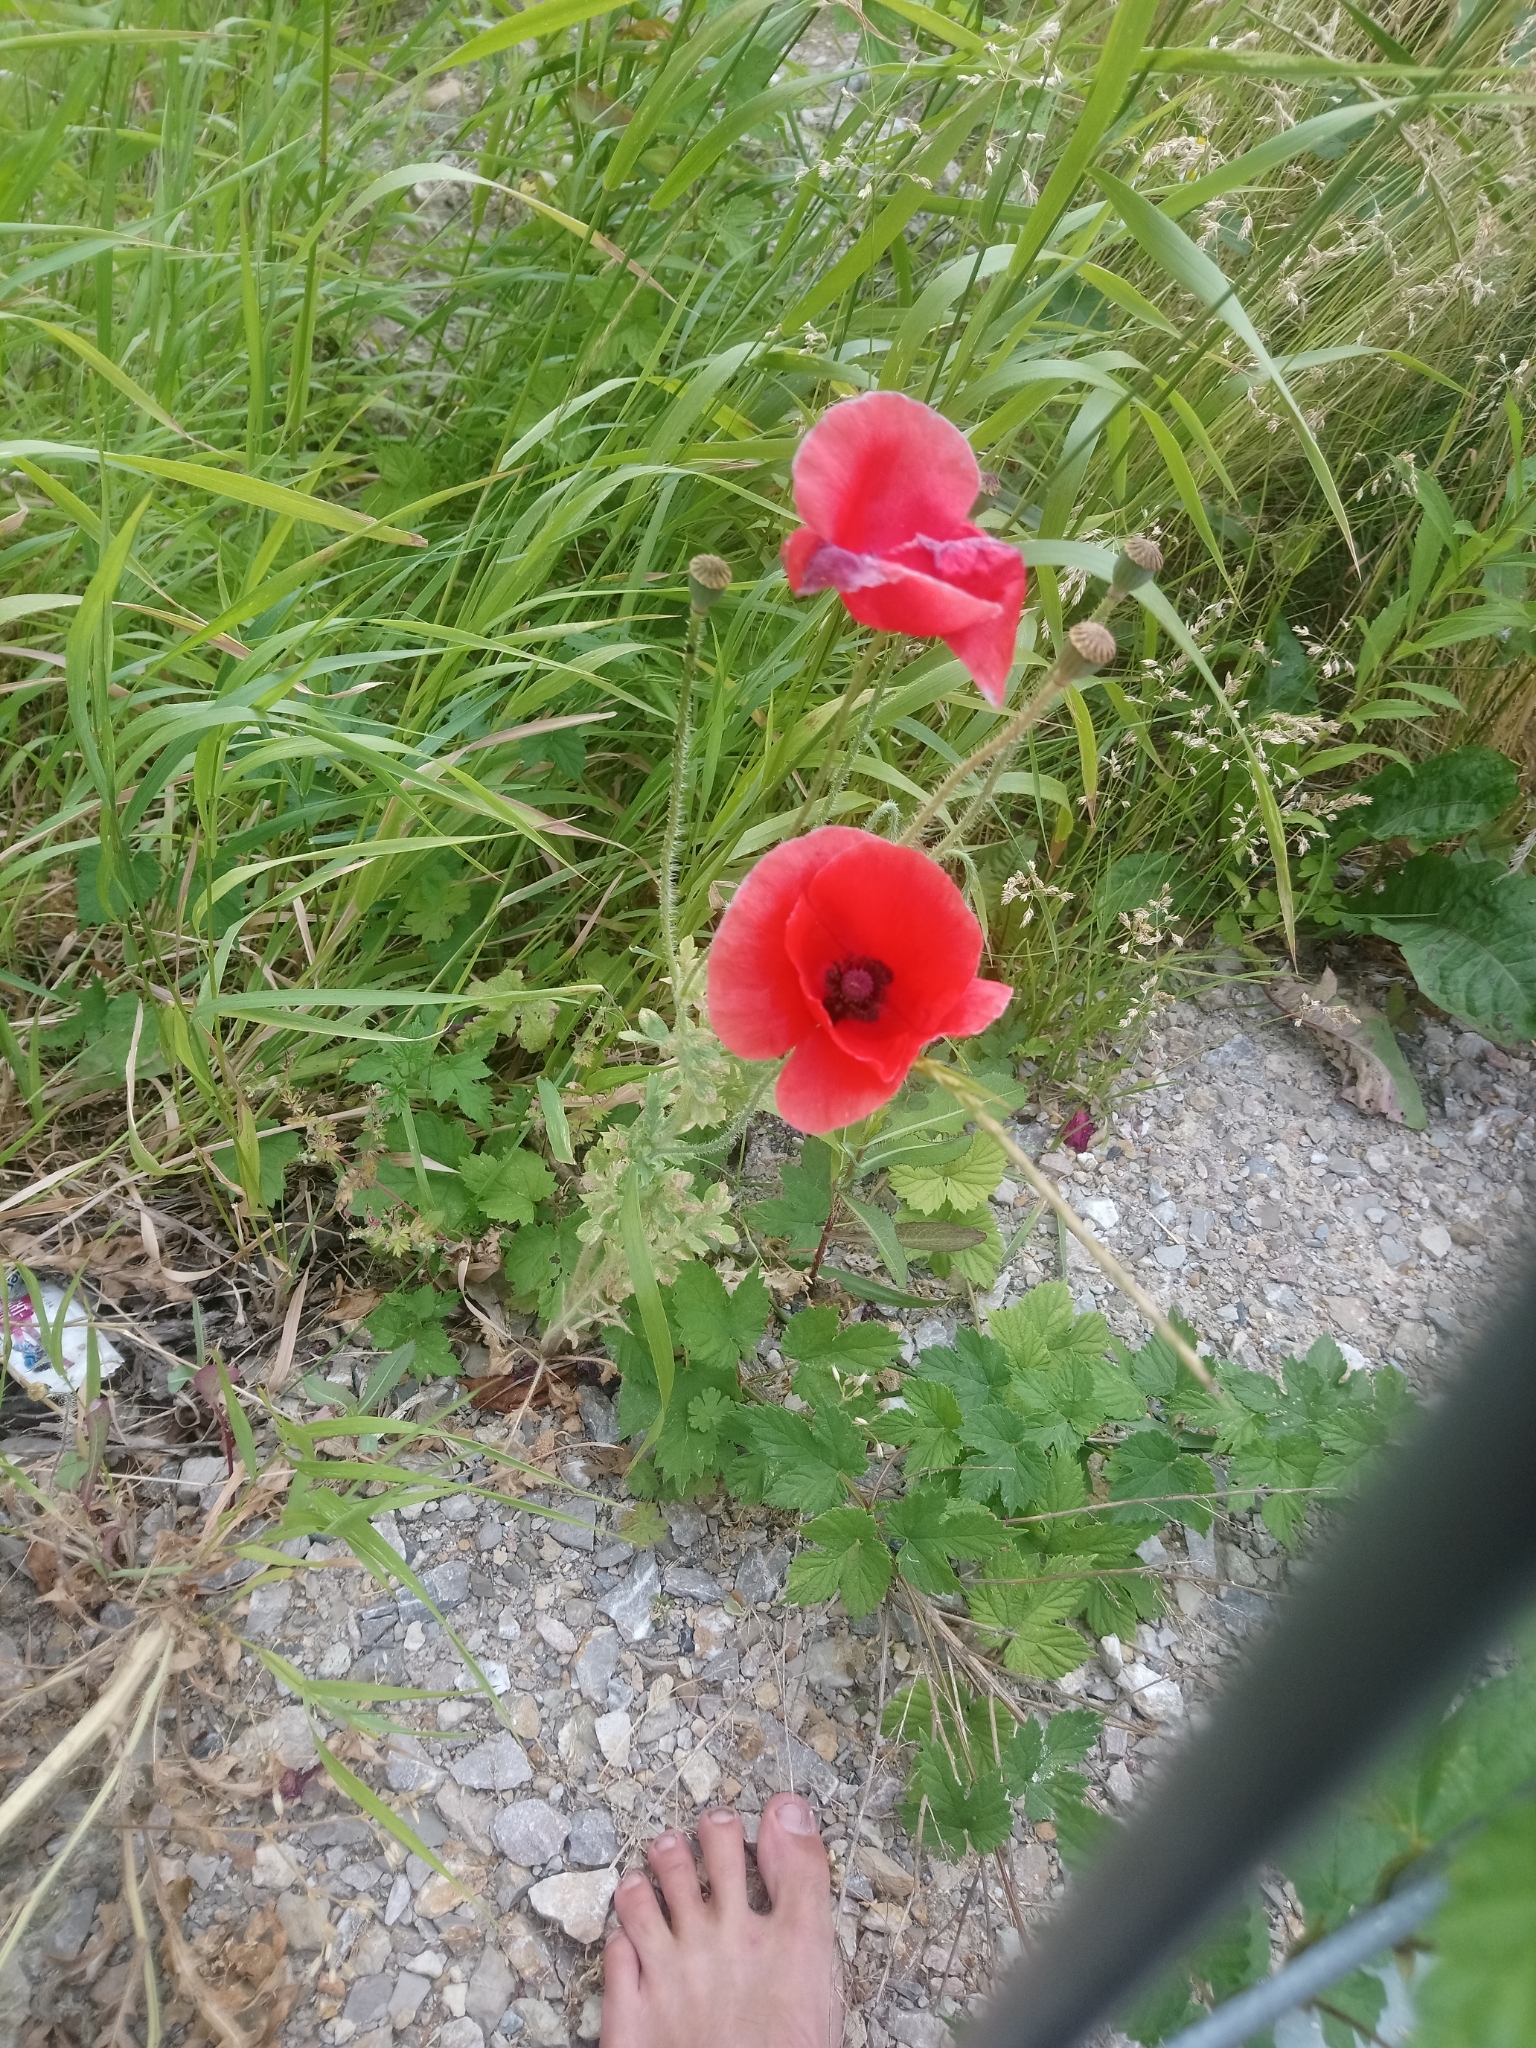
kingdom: Plantae
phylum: Tracheophyta
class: Magnoliopsida
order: Ranunculales
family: Papaveraceae
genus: Papaver
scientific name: Papaver rhoeas
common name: Corn poppy
